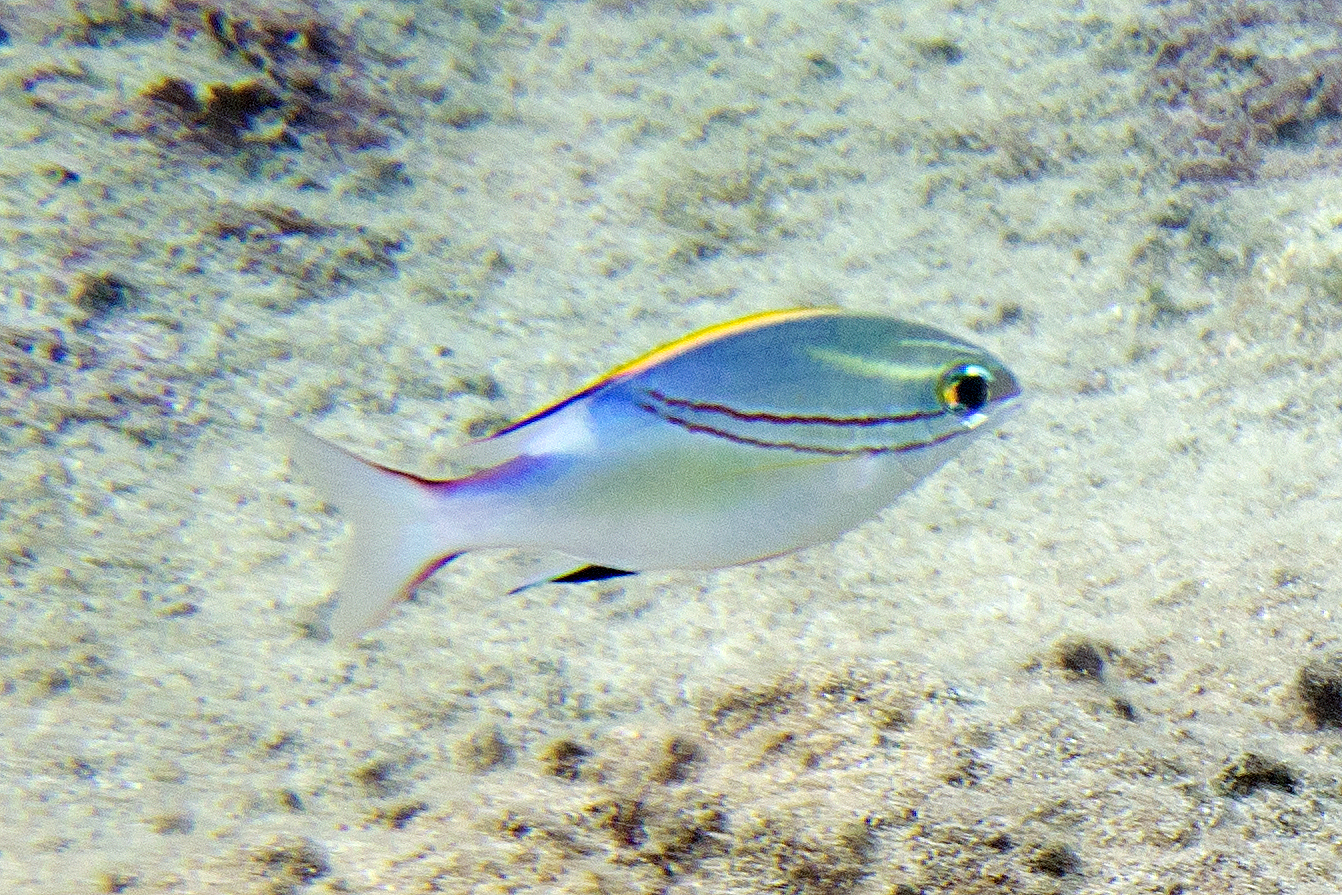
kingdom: Animalia
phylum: Chordata
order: Perciformes
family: Nemipteridae
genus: Scolopsis
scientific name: Scolopsis bilineata
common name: Two-lined monocle bream
